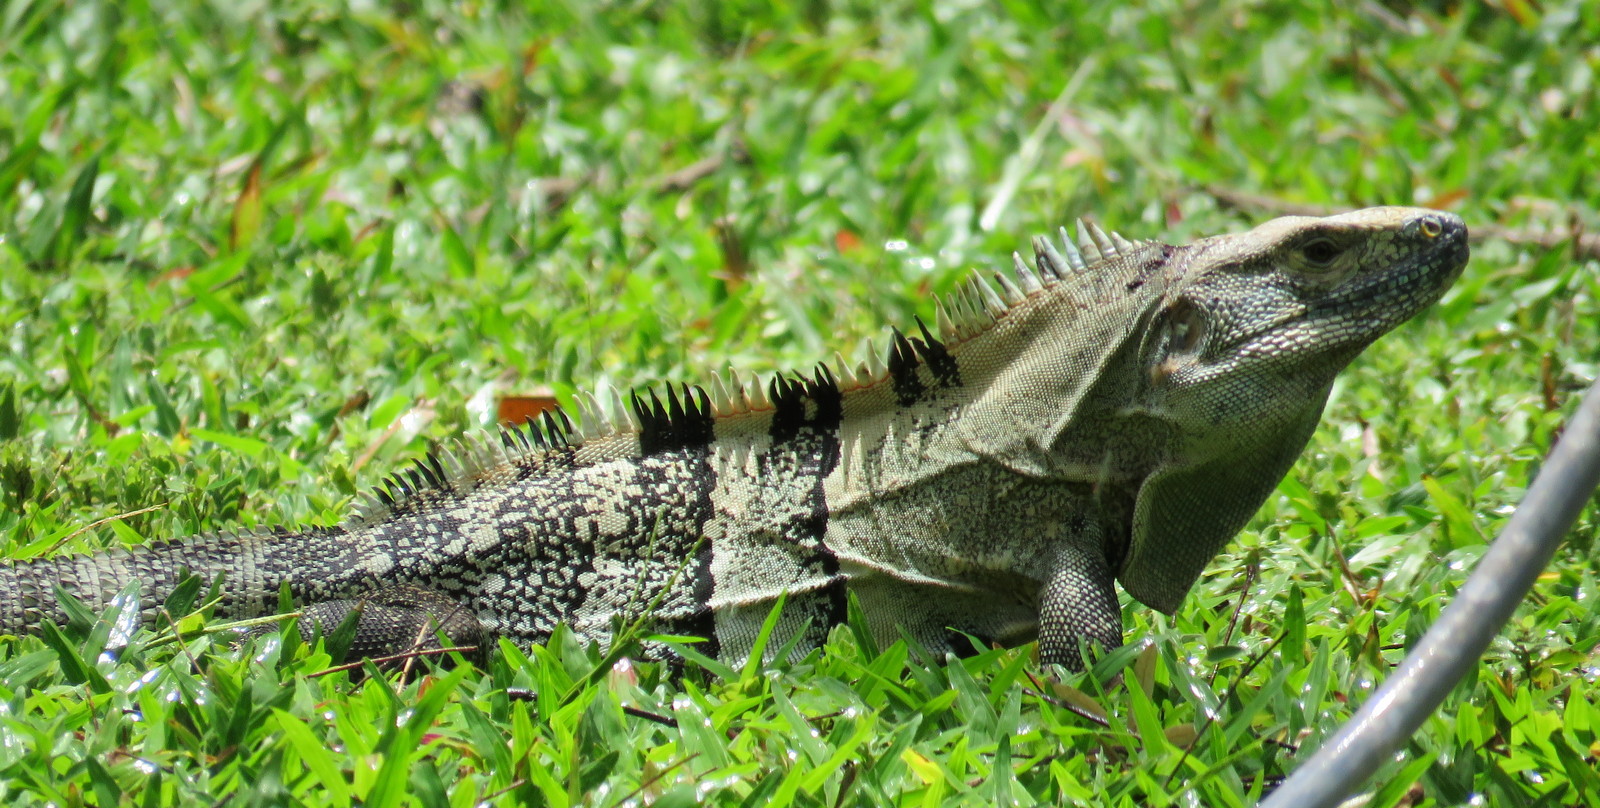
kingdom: Animalia
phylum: Chordata
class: Squamata
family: Iguanidae
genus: Ctenosaura
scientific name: Ctenosaura similis
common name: Black spiny-tailed iguana
